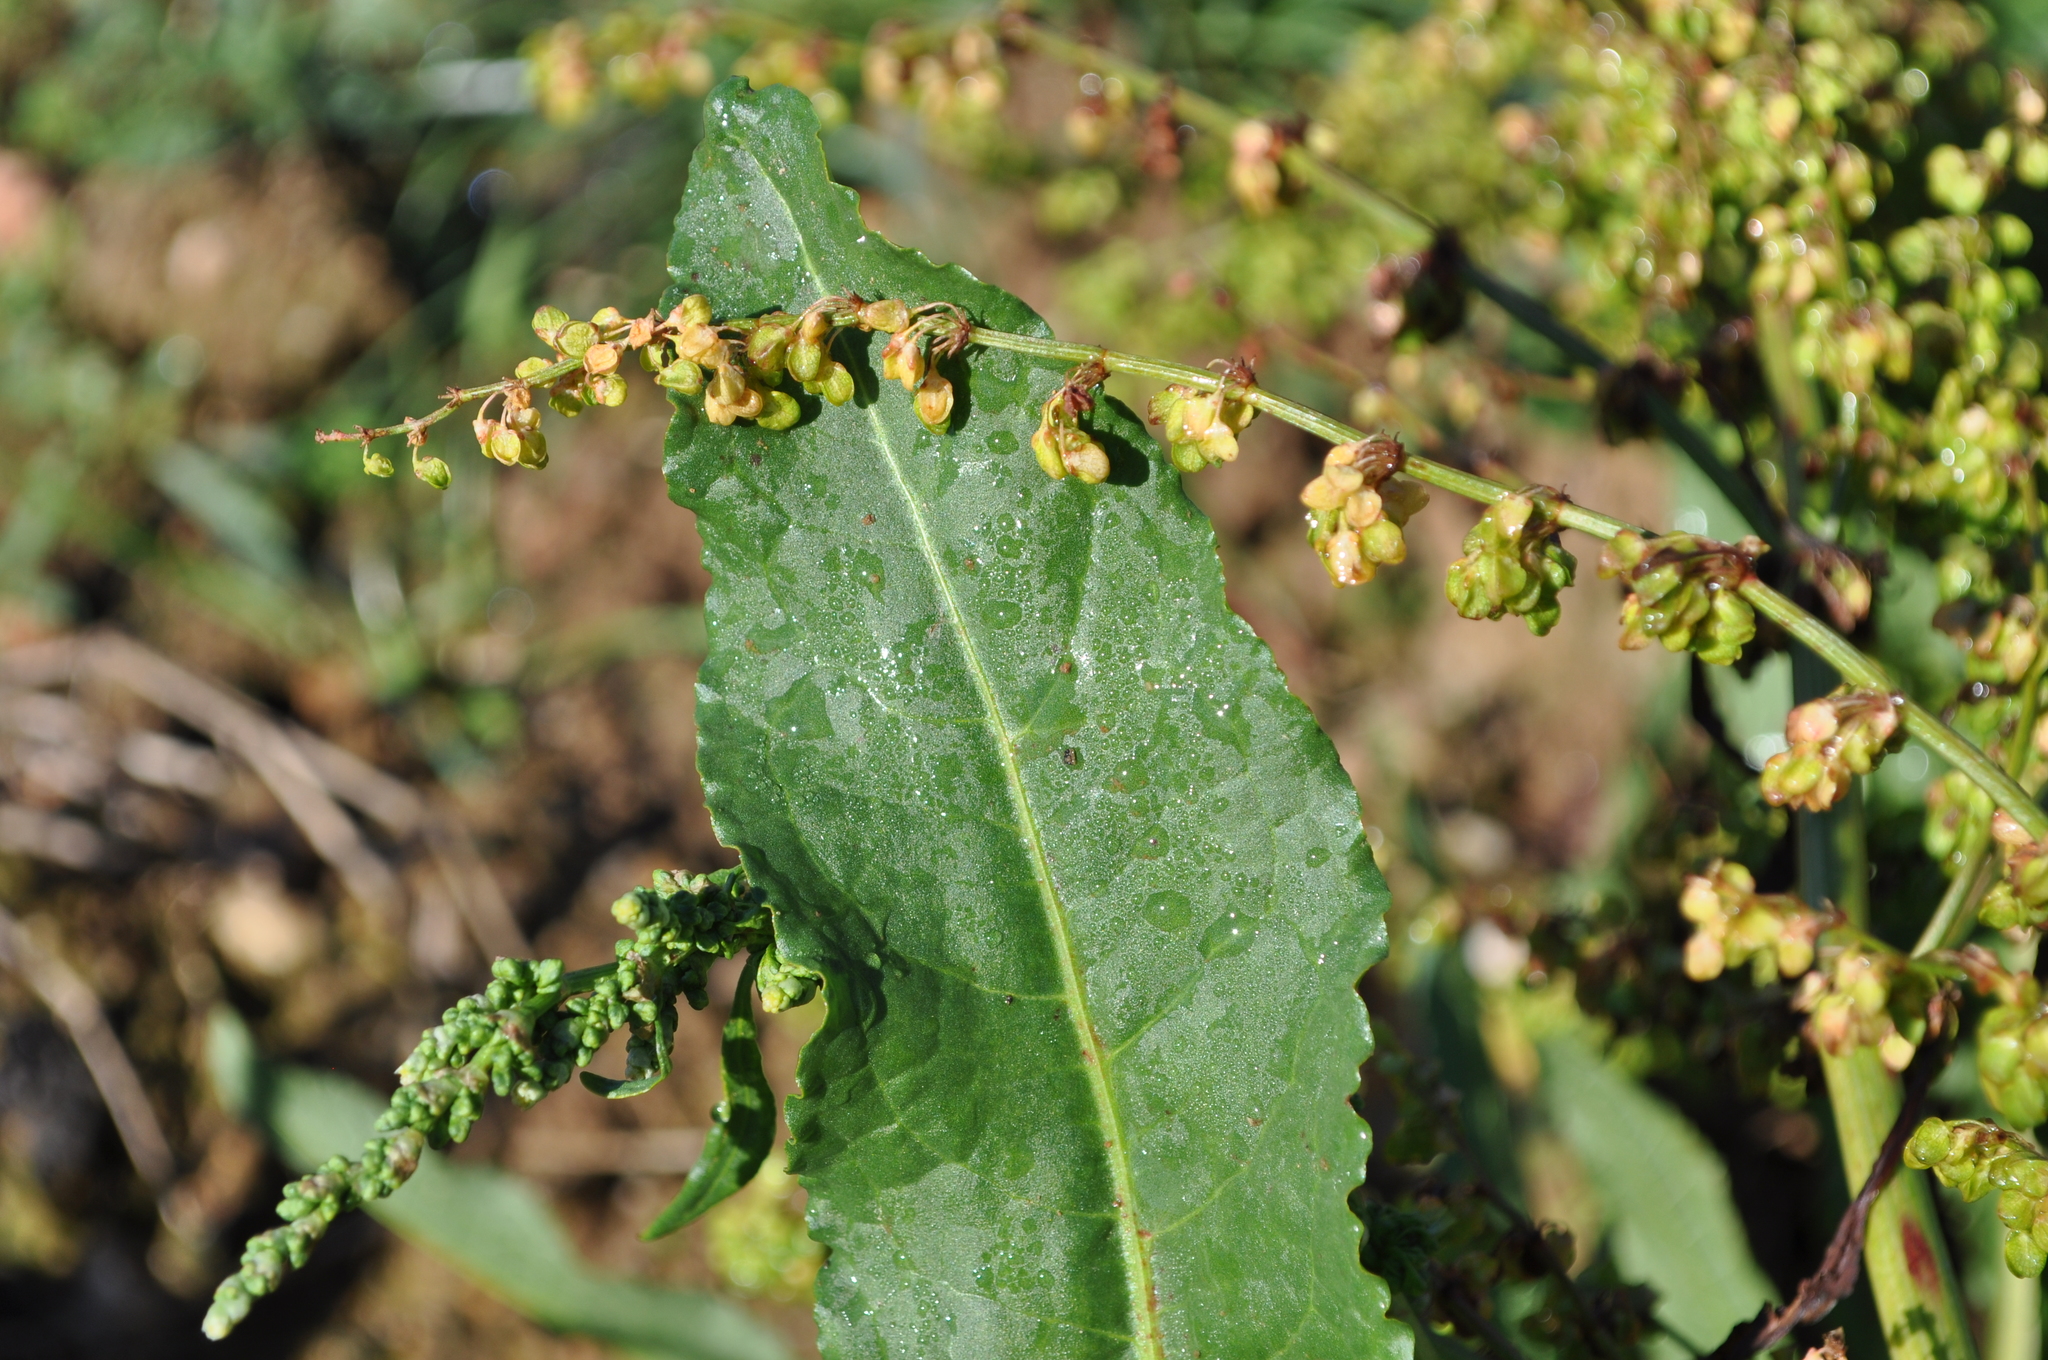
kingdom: Plantae
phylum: Tracheophyta
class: Magnoliopsida
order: Caryophyllales
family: Polygonaceae
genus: Rumex
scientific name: Rumex crispus
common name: Curled dock
